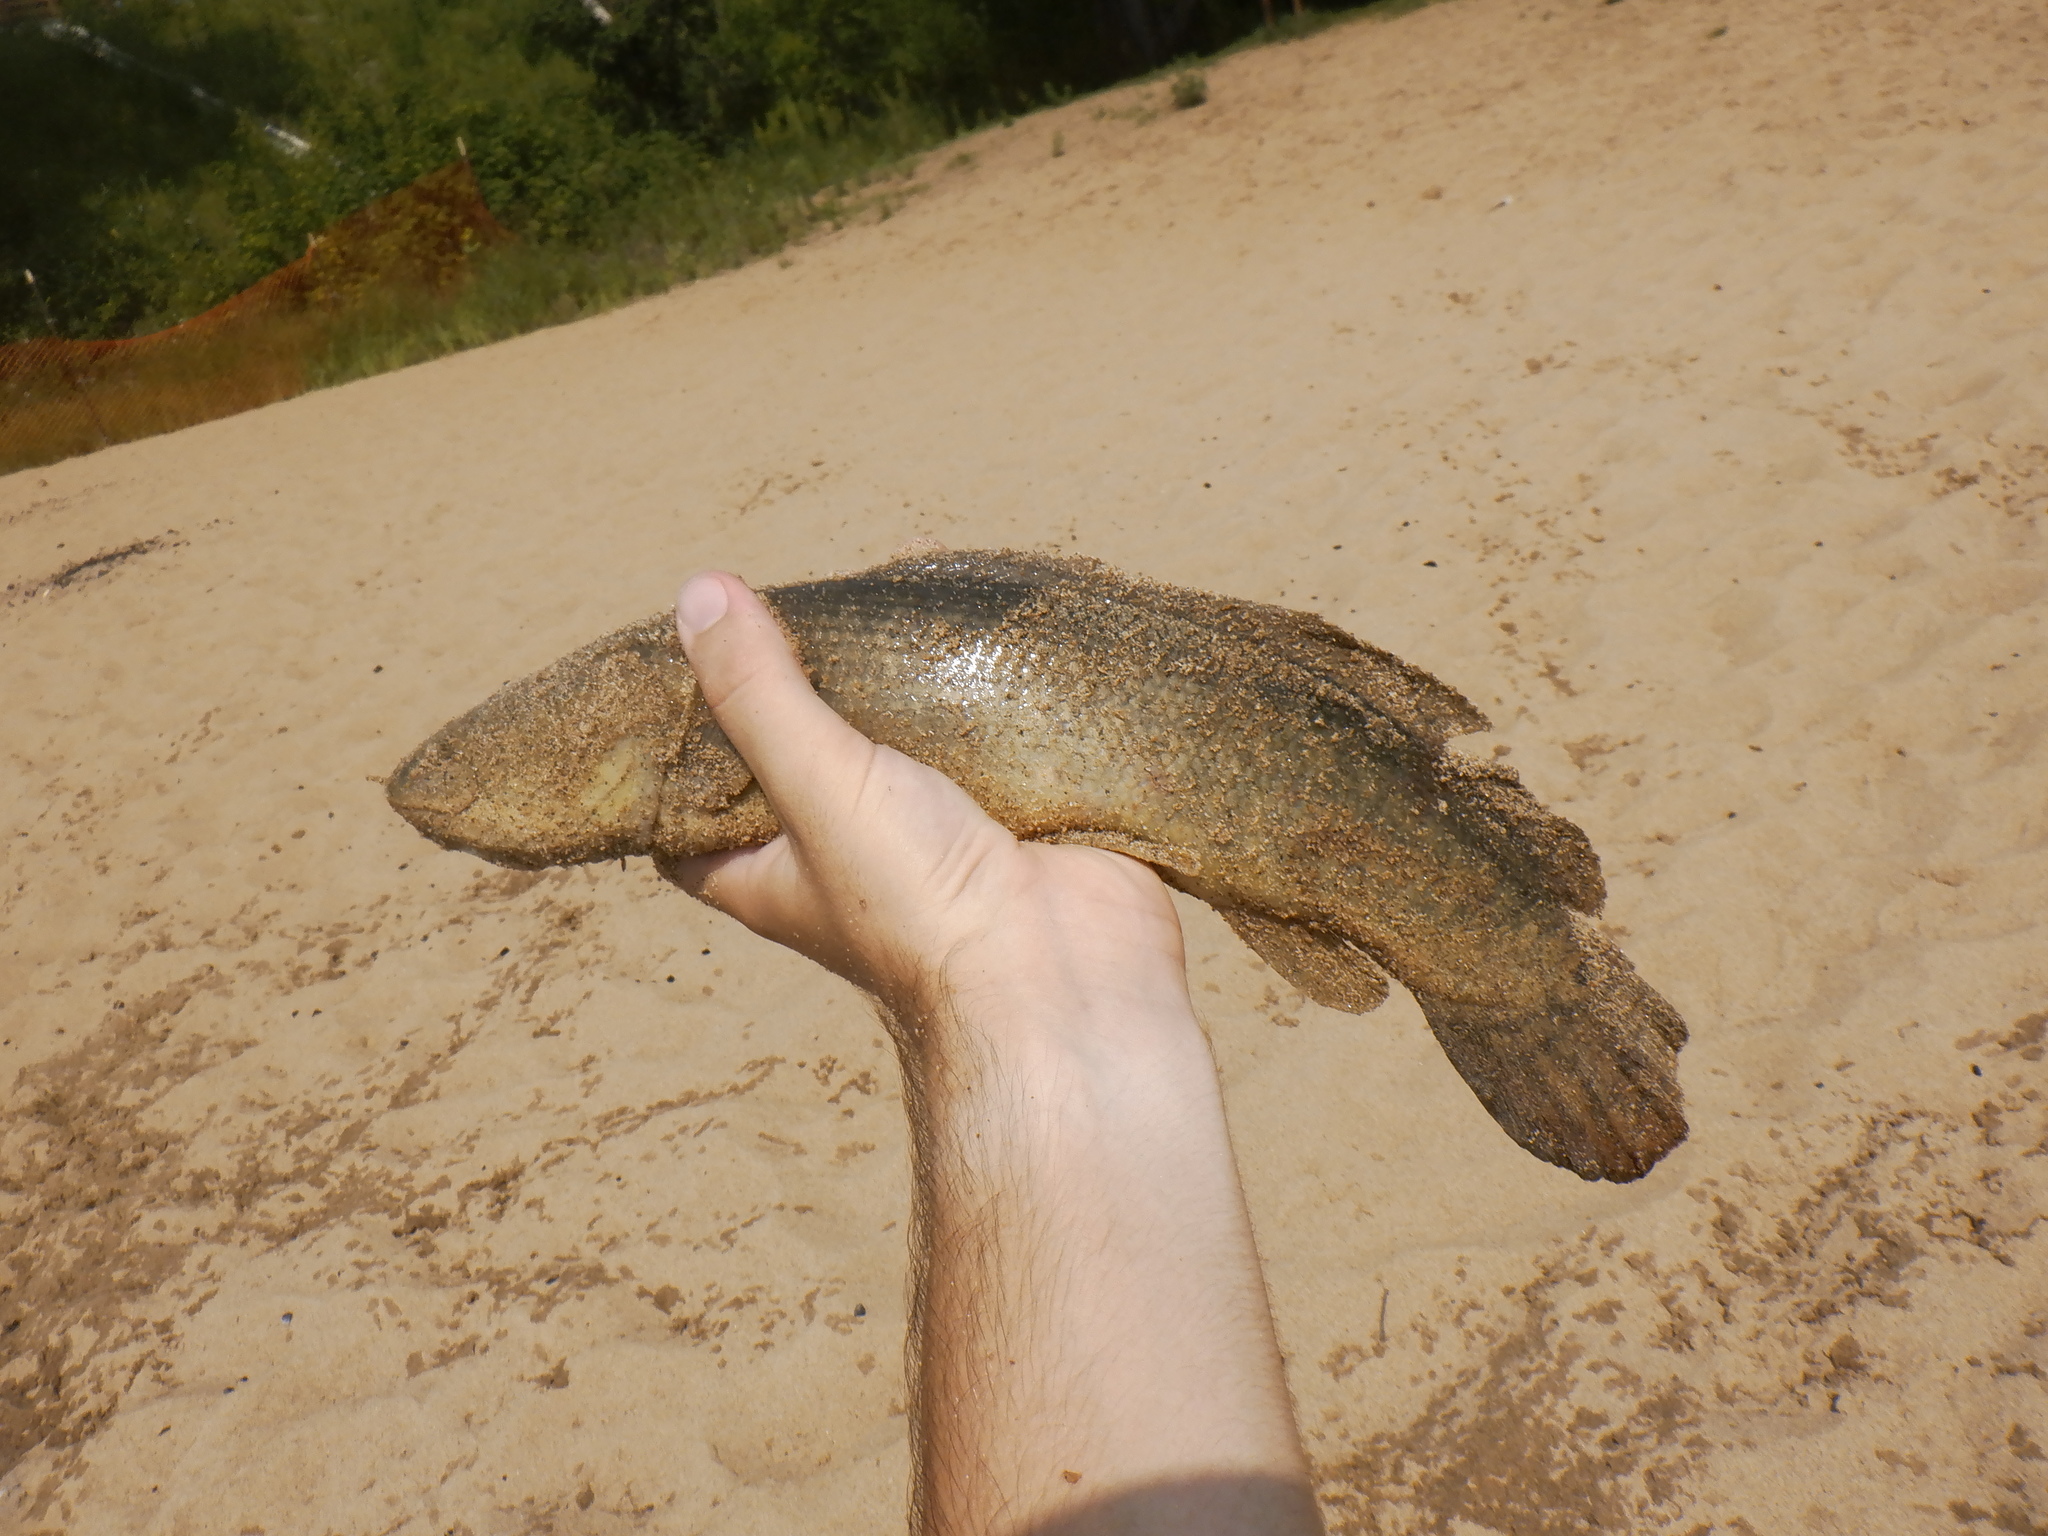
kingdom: Animalia
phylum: Chordata
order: Amiiformes
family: Amiidae
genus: Amia
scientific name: Amia calva
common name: Bowfin
